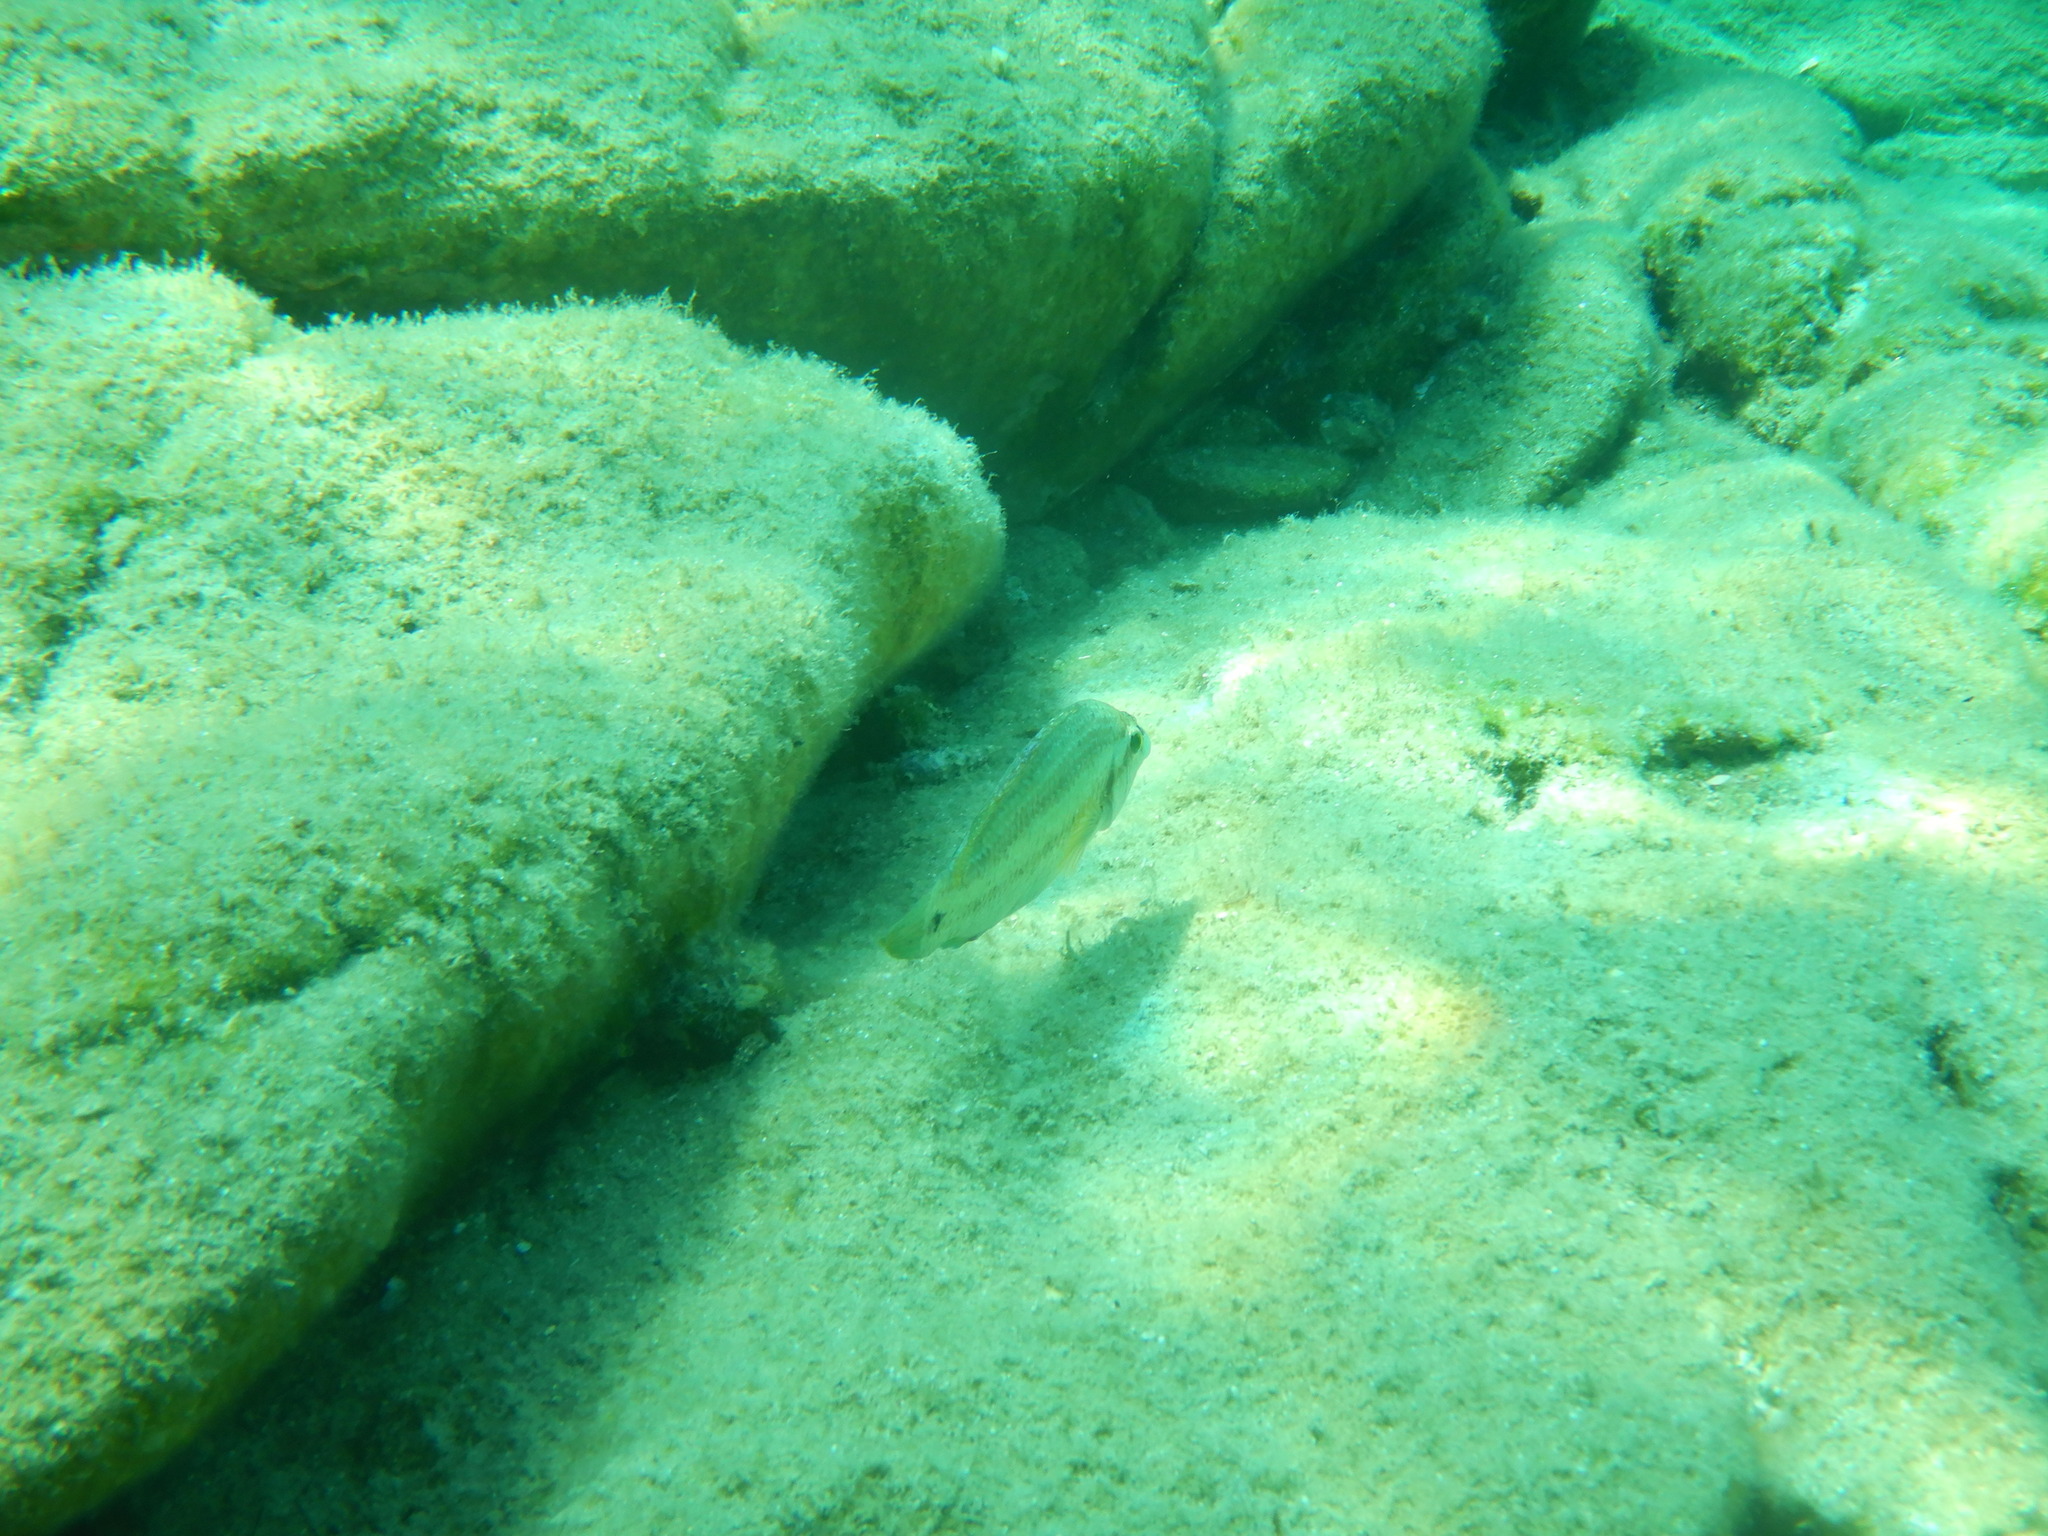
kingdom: Animalia
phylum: Chordata
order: Perciformes
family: Labridae
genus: Symphodus
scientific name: Symphodus tinca
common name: Peacock wrasse
